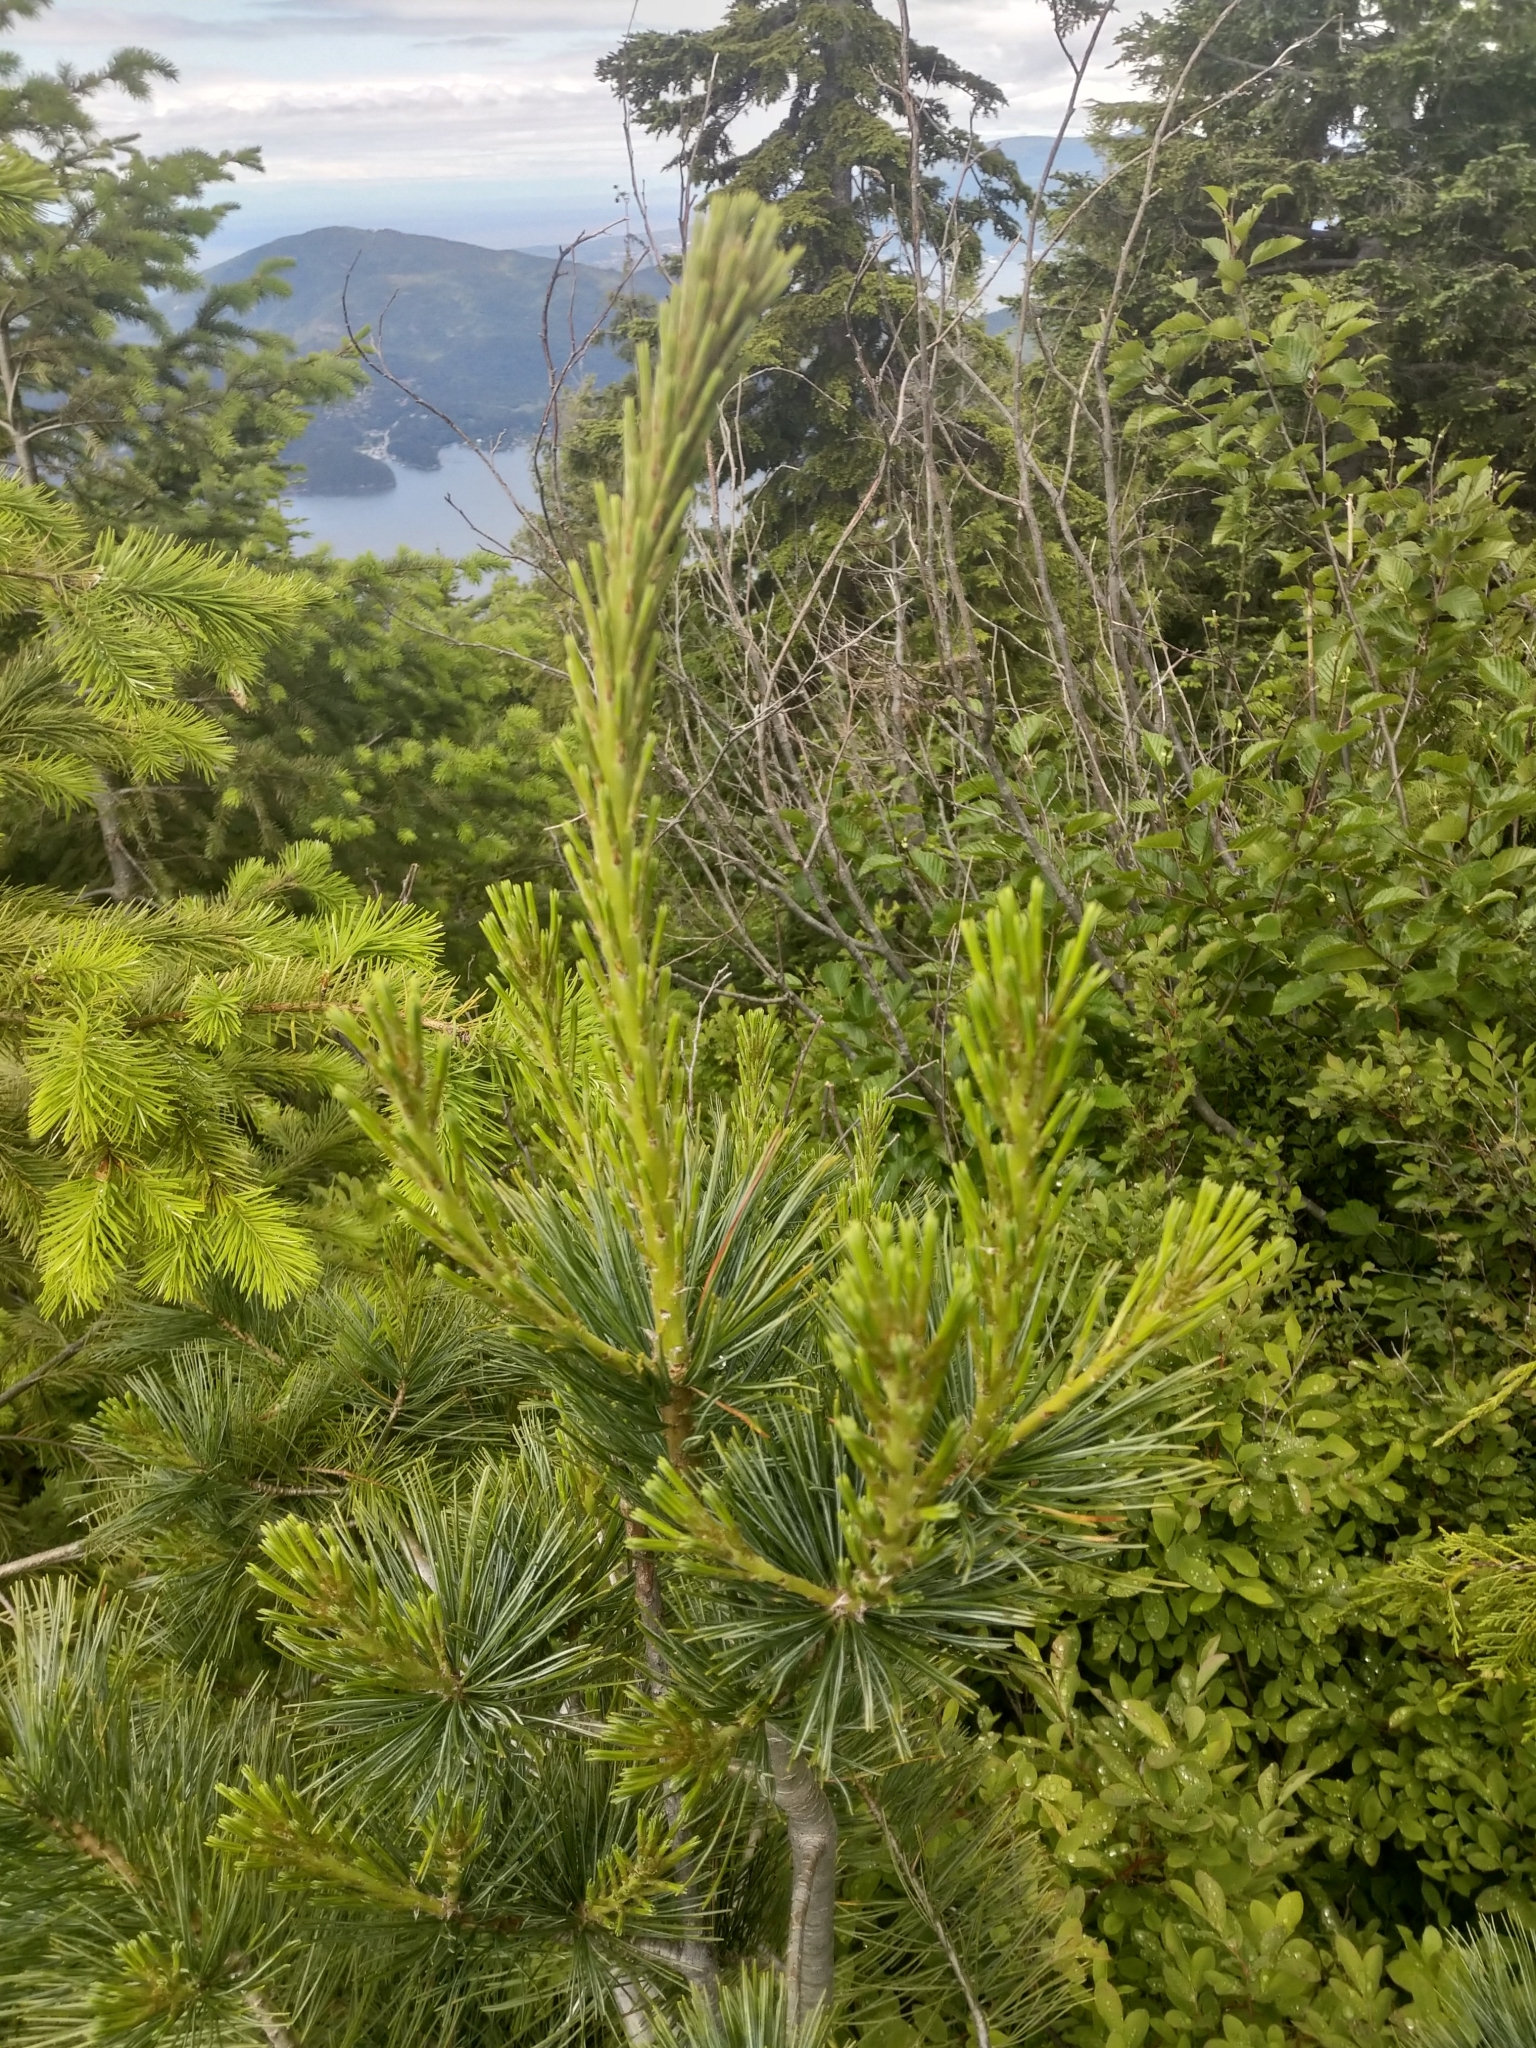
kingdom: Plantae
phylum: Tracheophyta
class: Pinopsida
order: Pinales
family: Pinaceae
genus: Pinus
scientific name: Pinus monticola
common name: Western white pine
